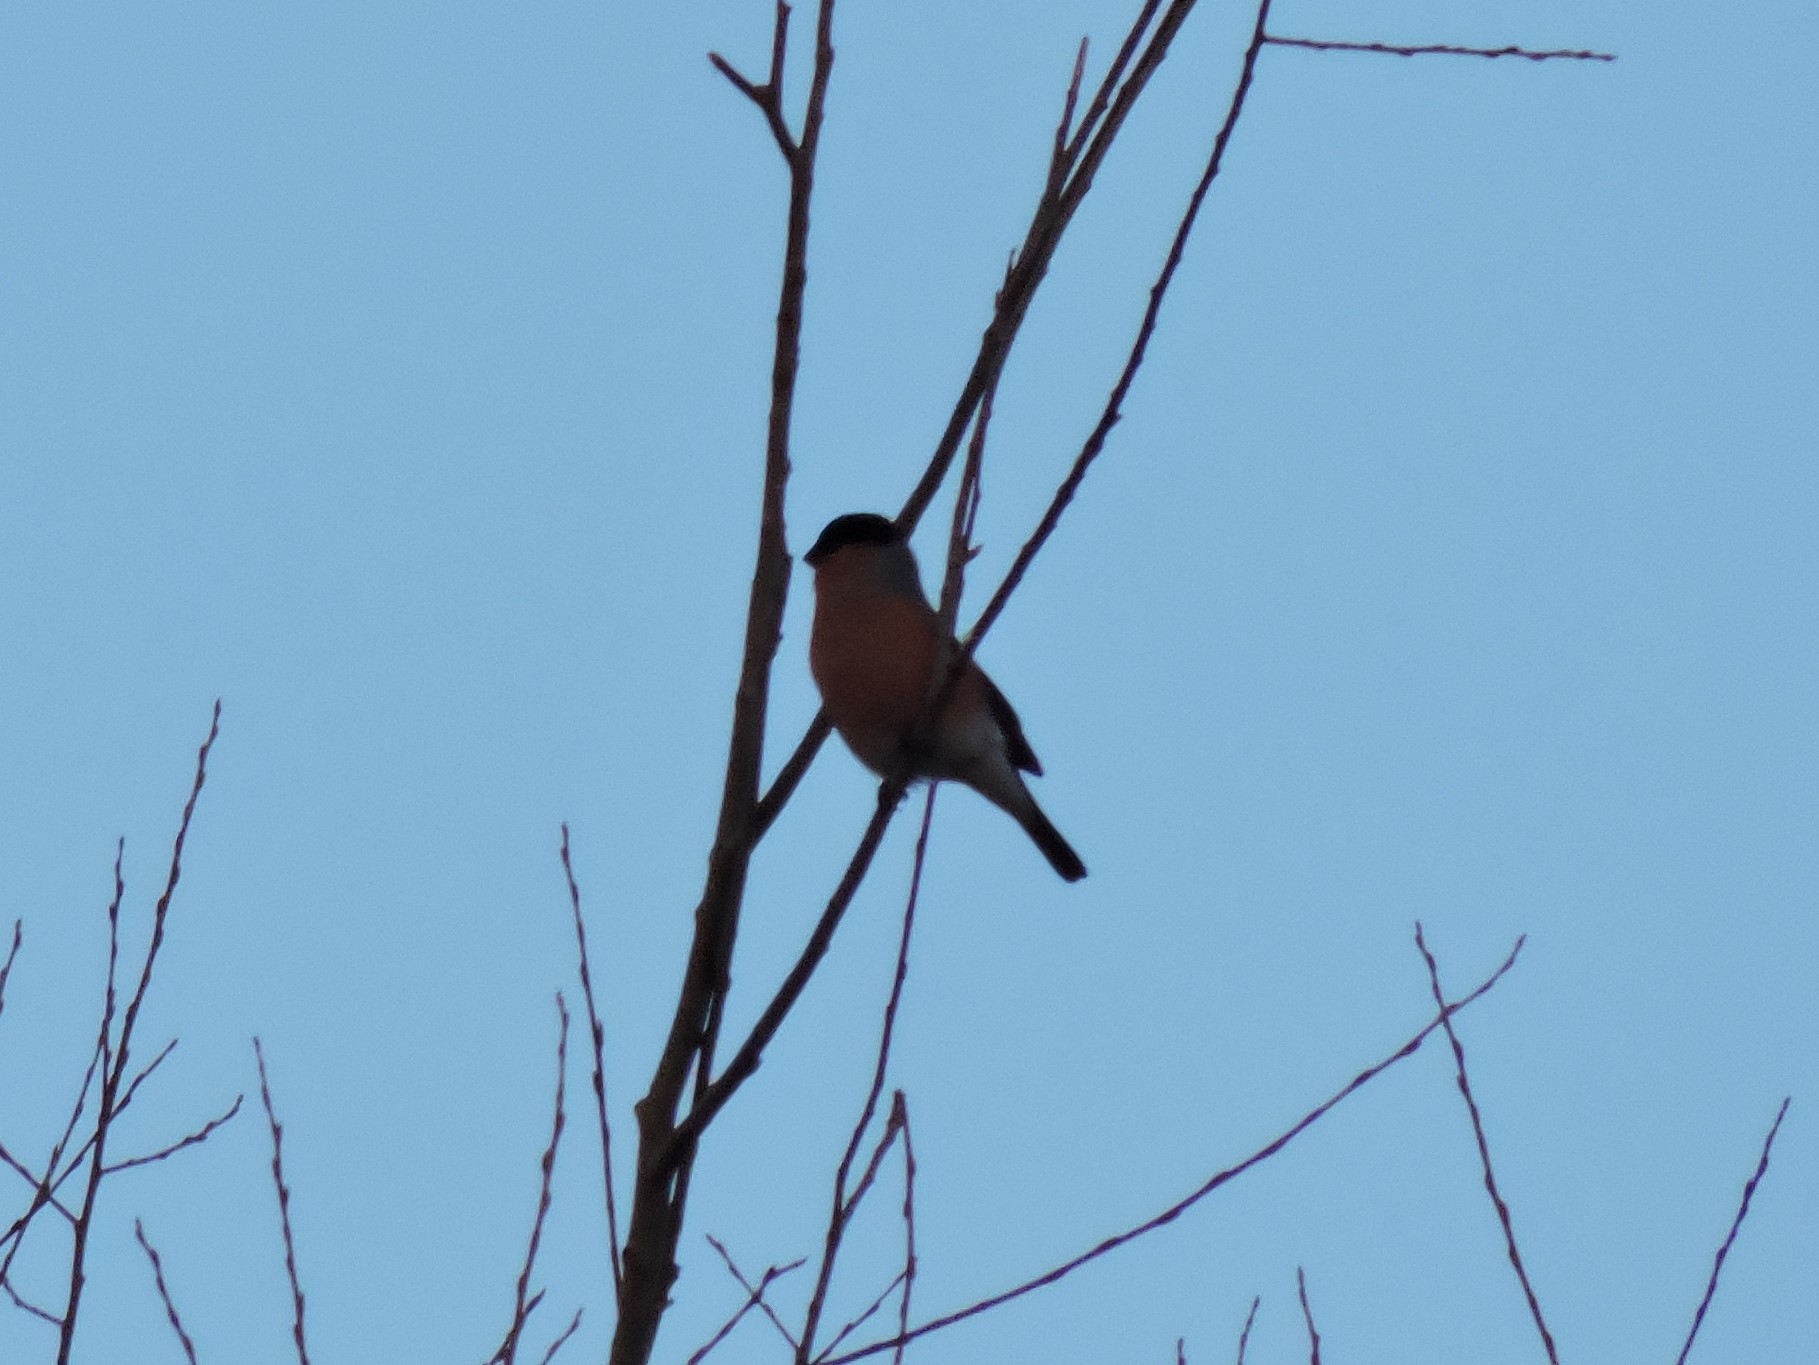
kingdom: Animalia
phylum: Chordata
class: Aves
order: Passeriformes
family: Fringillidae
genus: Pyrrhula
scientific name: Pyrrhula pyrrhula
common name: Eurasian bullfinch
